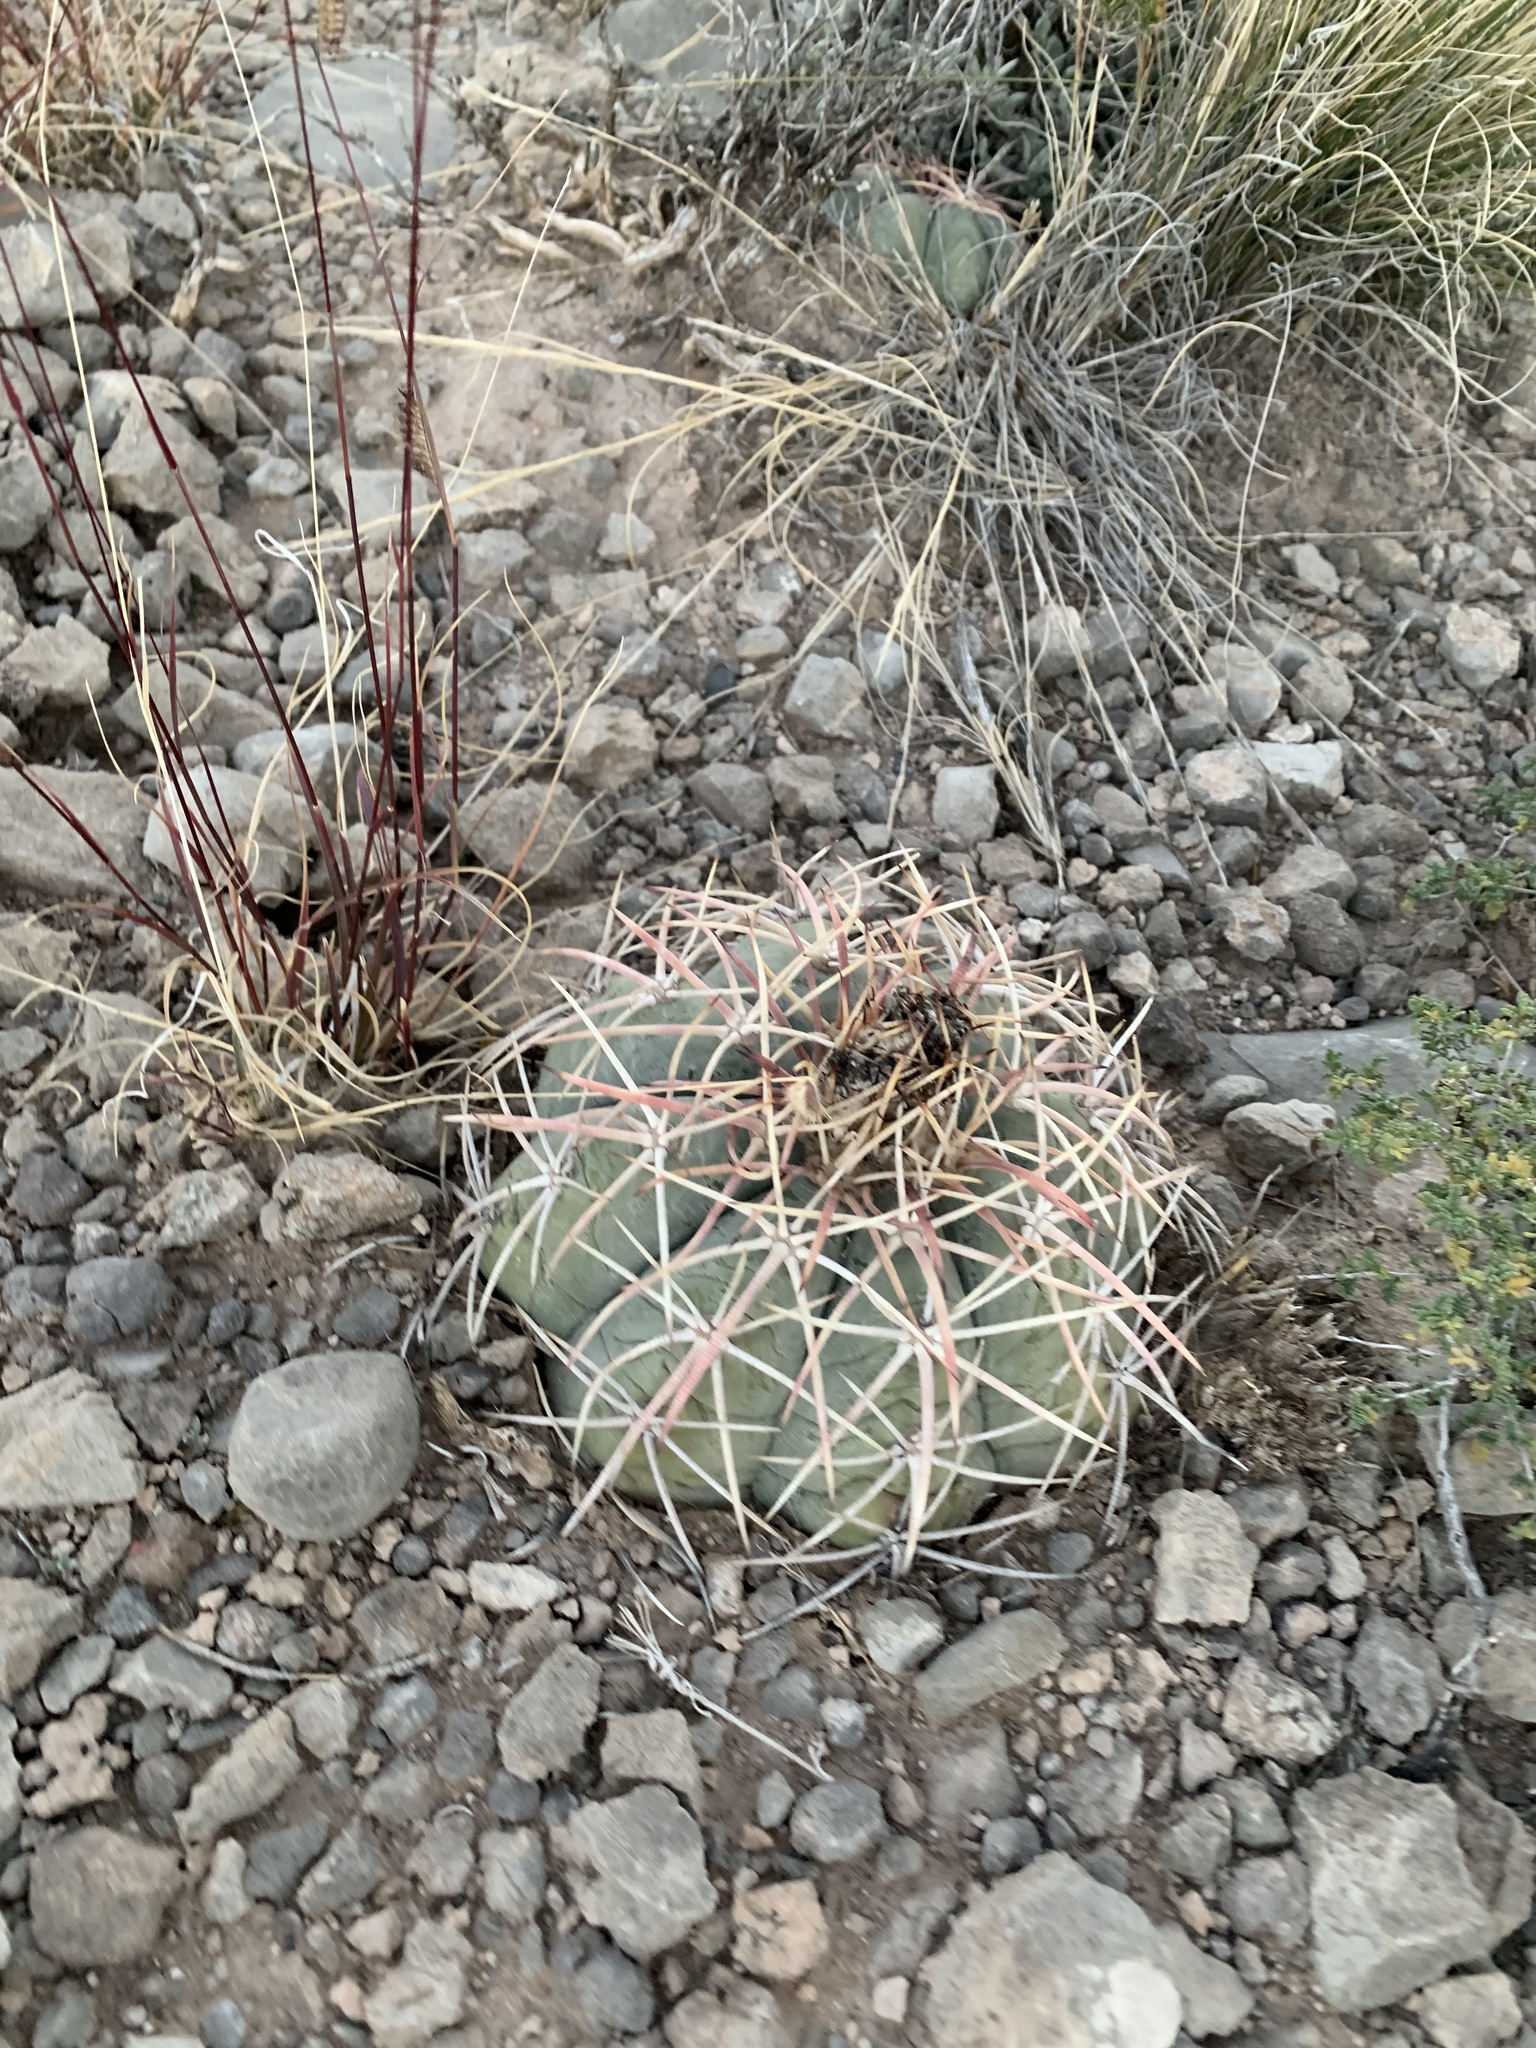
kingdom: Plantae
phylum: Tracheophyta
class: Magnoliopsida
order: Caryophyllales
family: Cactaceae
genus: Echinocactus
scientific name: Echinocactus horizonthalonius
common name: Devilshead
